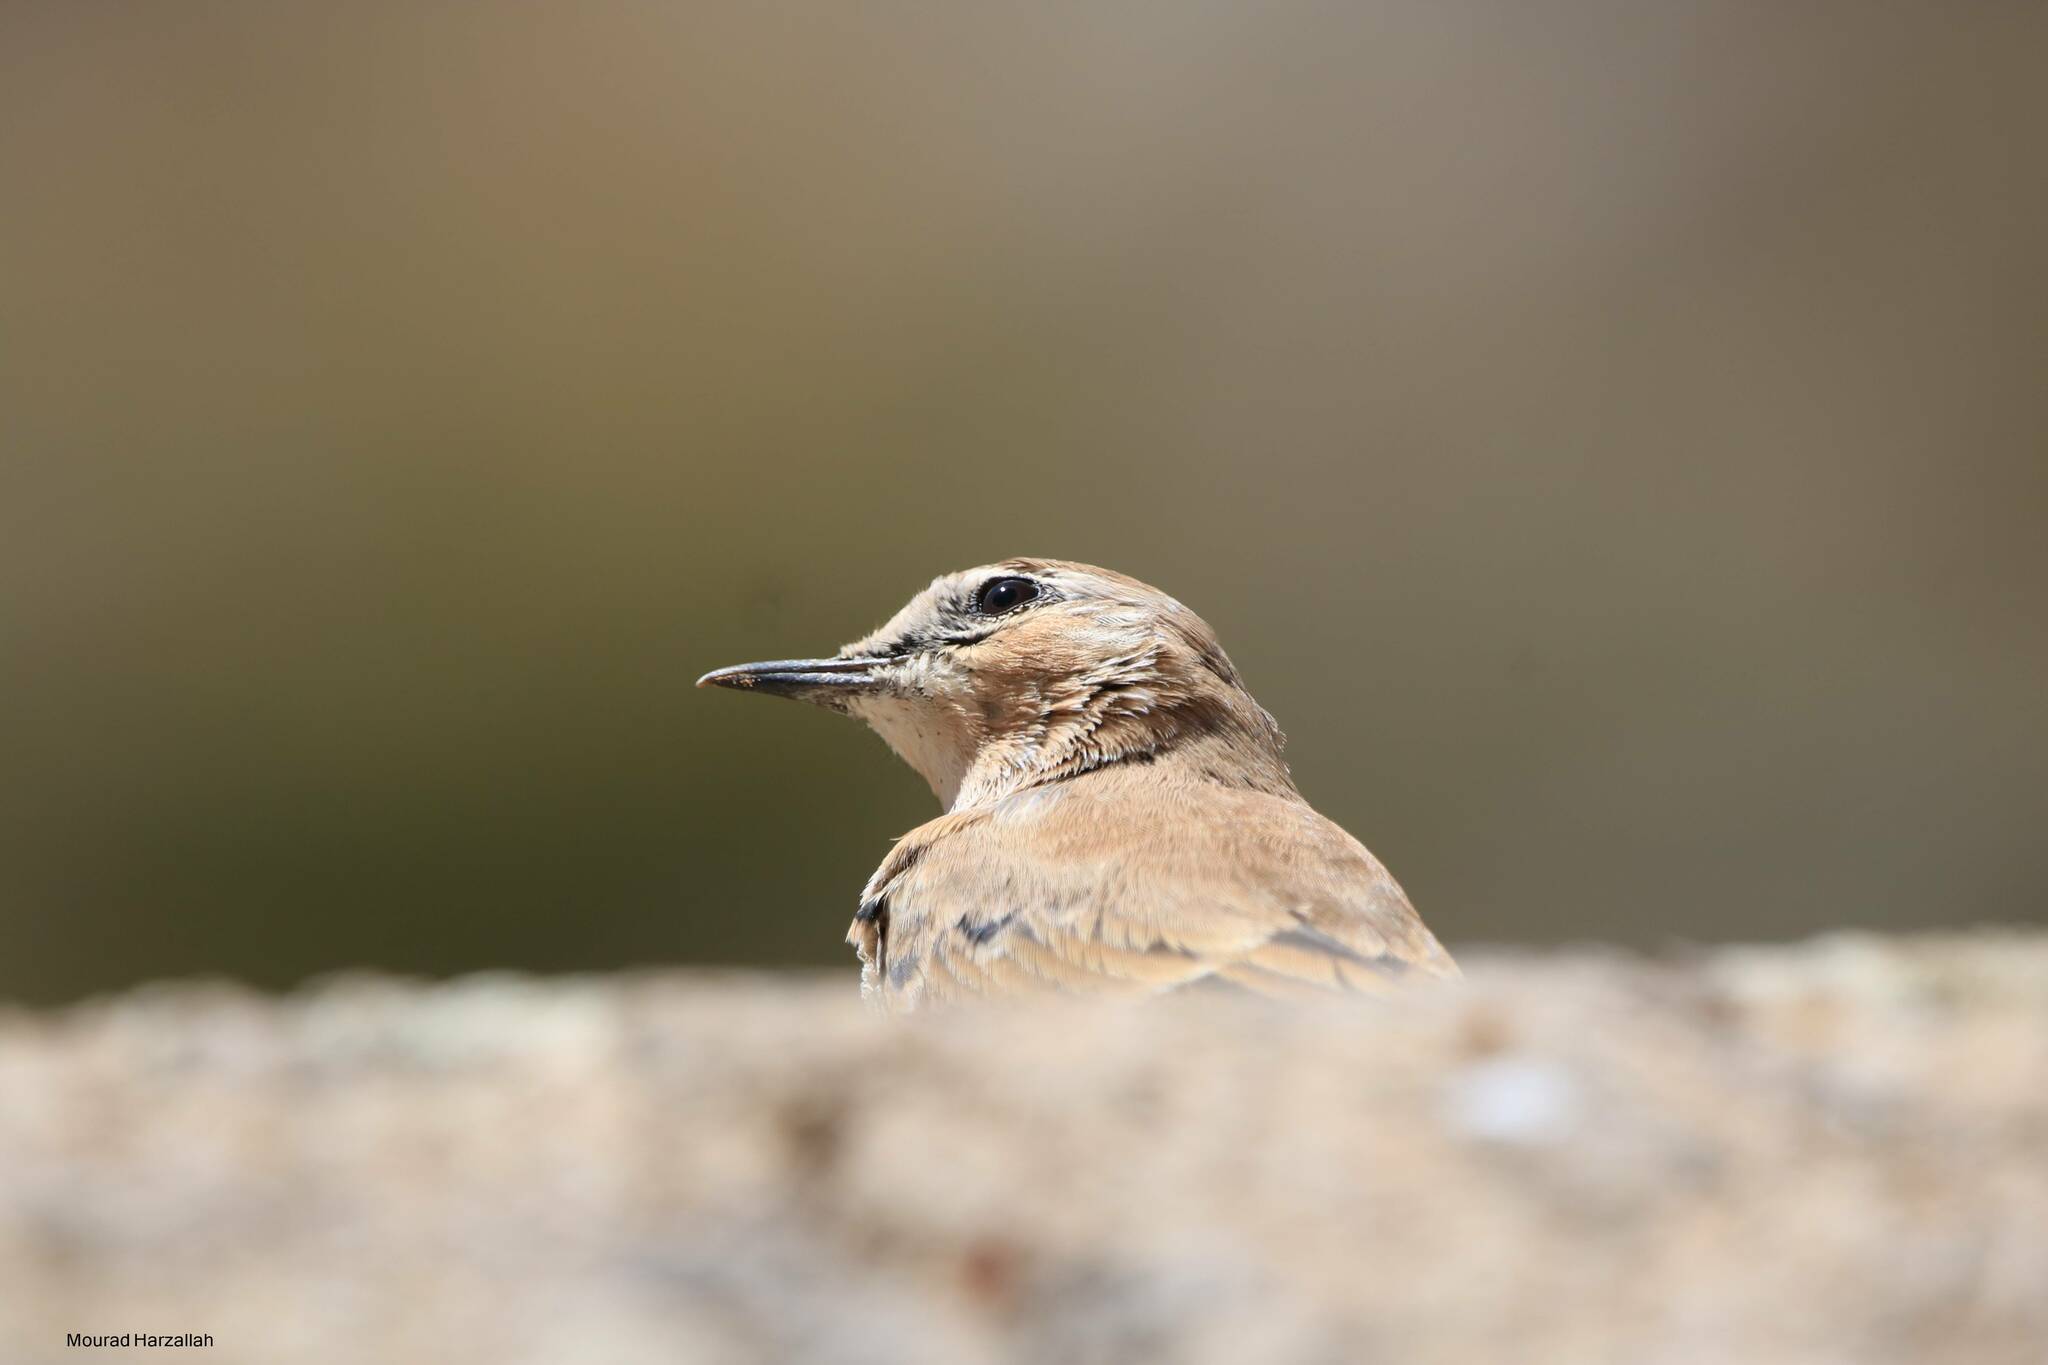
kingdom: Animalia
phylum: Chordata
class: Aves
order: Passeriformes
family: Muscicapidae
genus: Oenanthe
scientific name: Oenanthe oenanthe
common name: Northern wheatear
